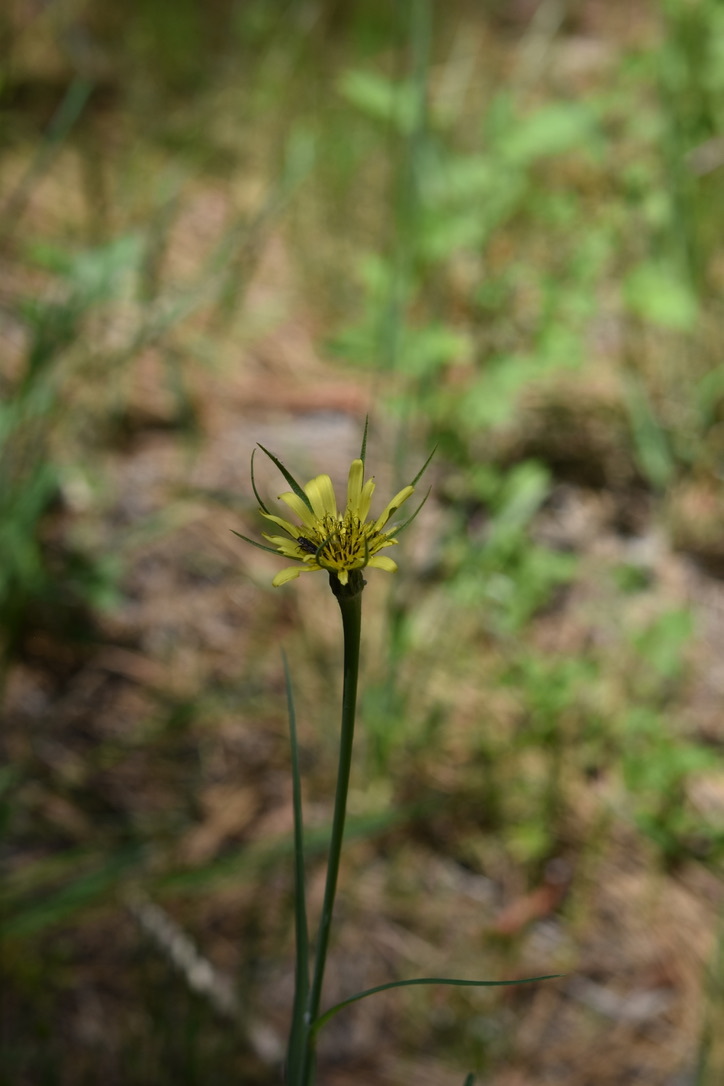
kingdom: Plantae
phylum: Tracheophyta
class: Magnoliopsida
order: Asterales
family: Asteraceae
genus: Tragopogon
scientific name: Tragopogon dubius
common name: Yellow salsify
